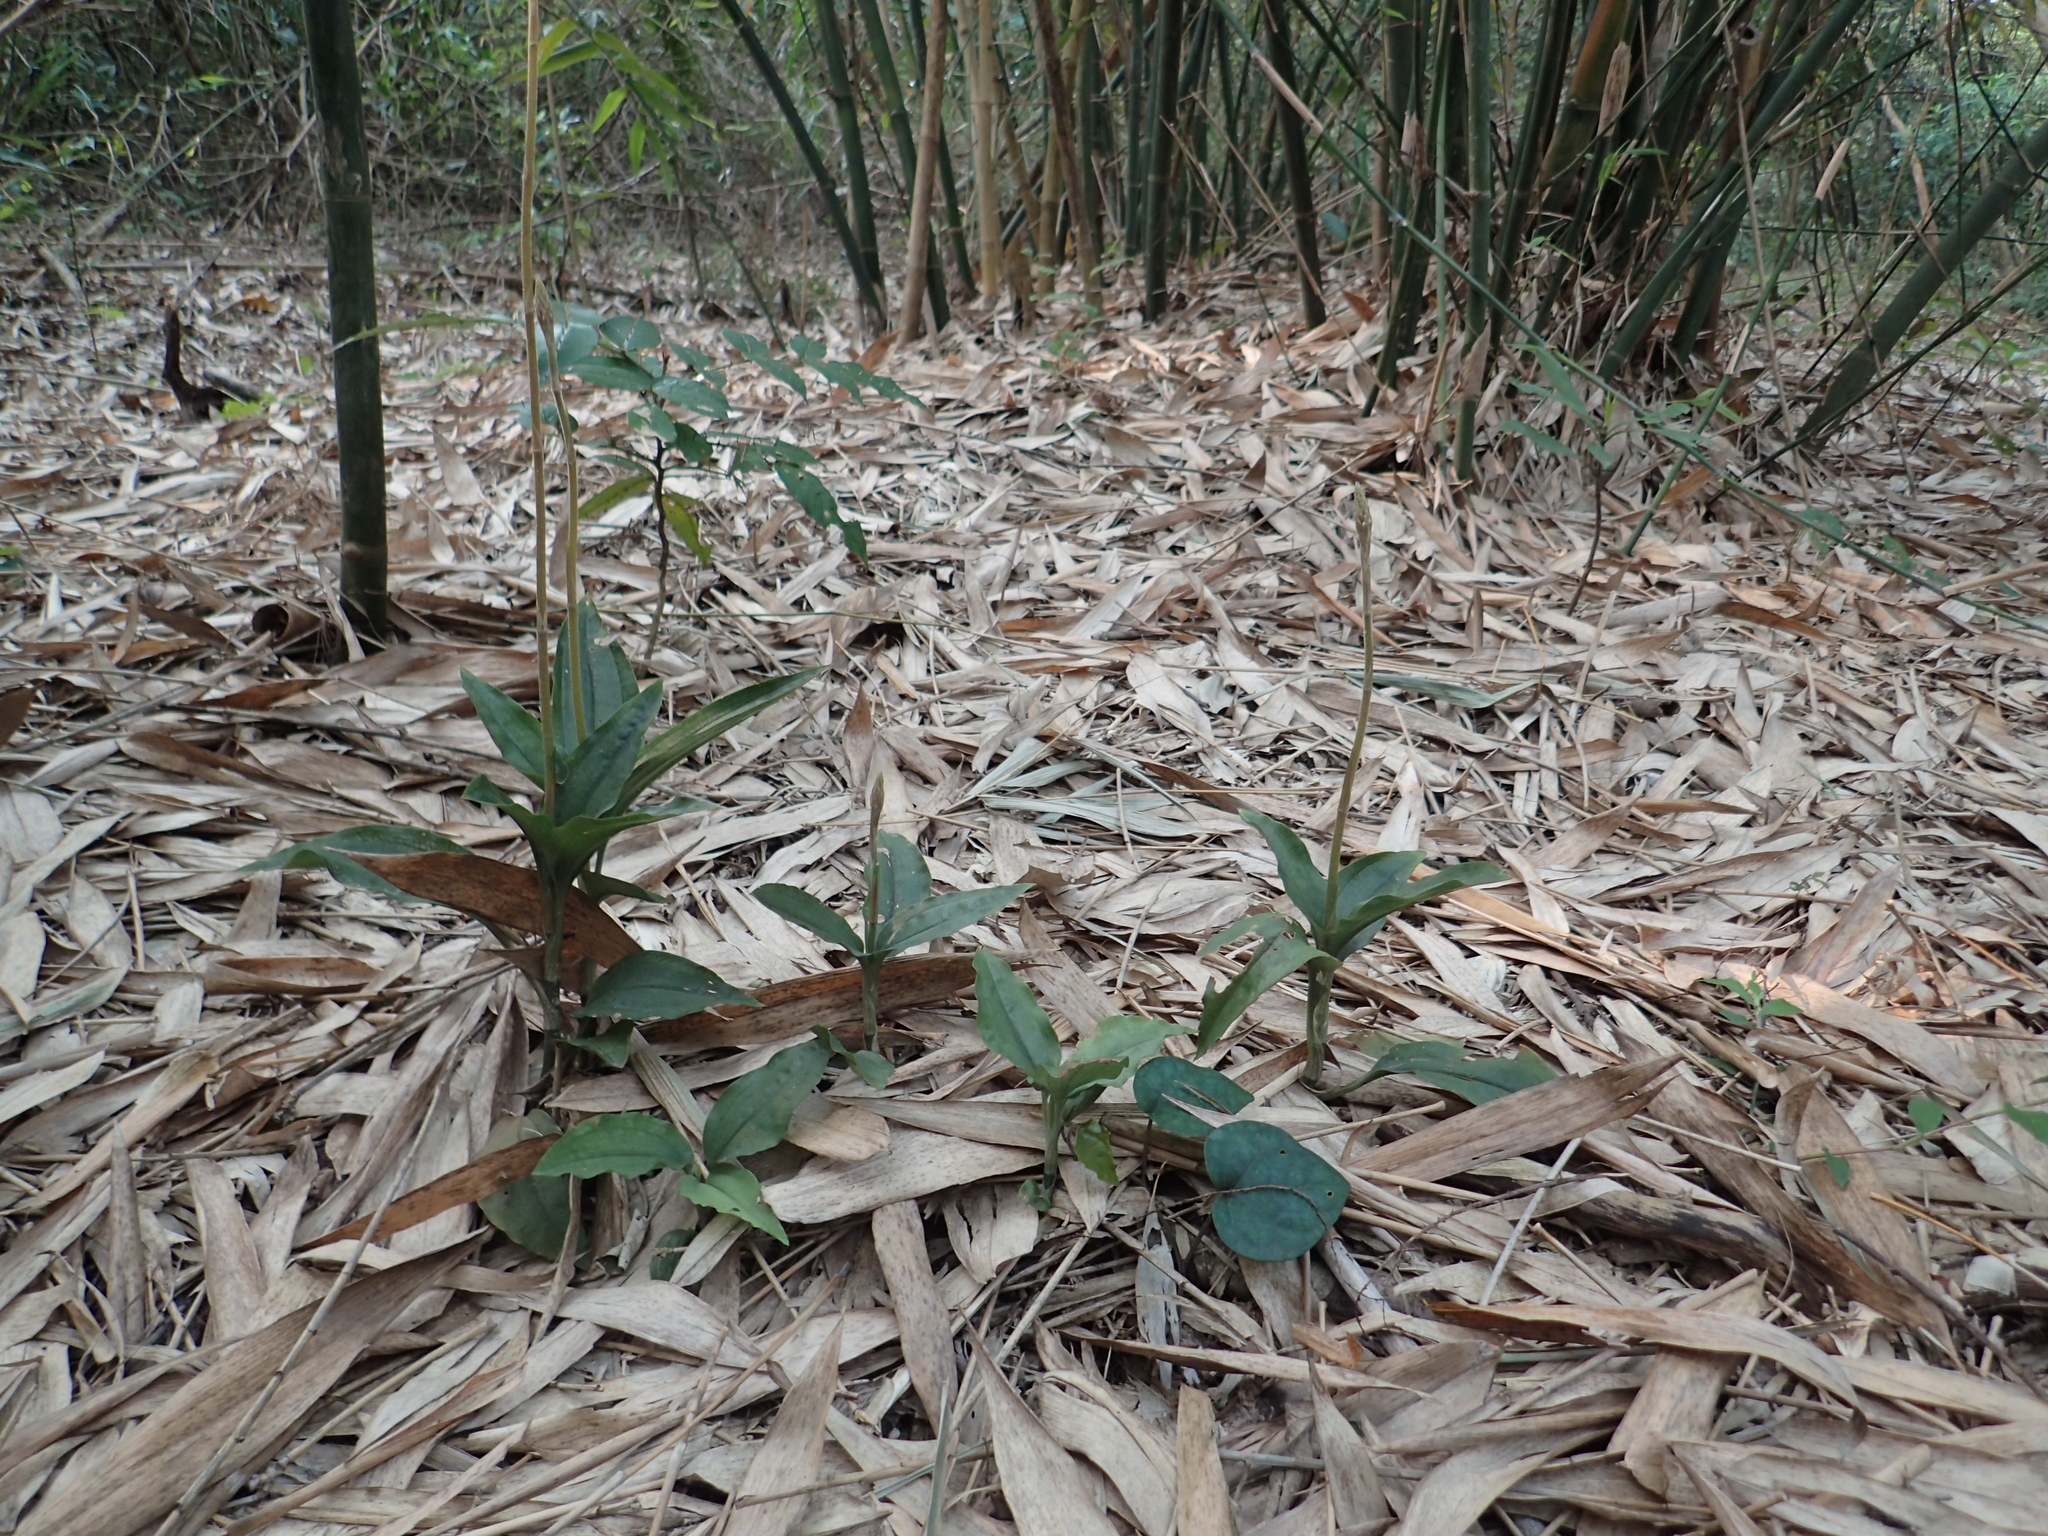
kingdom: Plantae
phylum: Tracheophyta
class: Liliopsida
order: Asparagales
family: Orchidaceae
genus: Erythrodes
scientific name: Erythrodes chinensis
